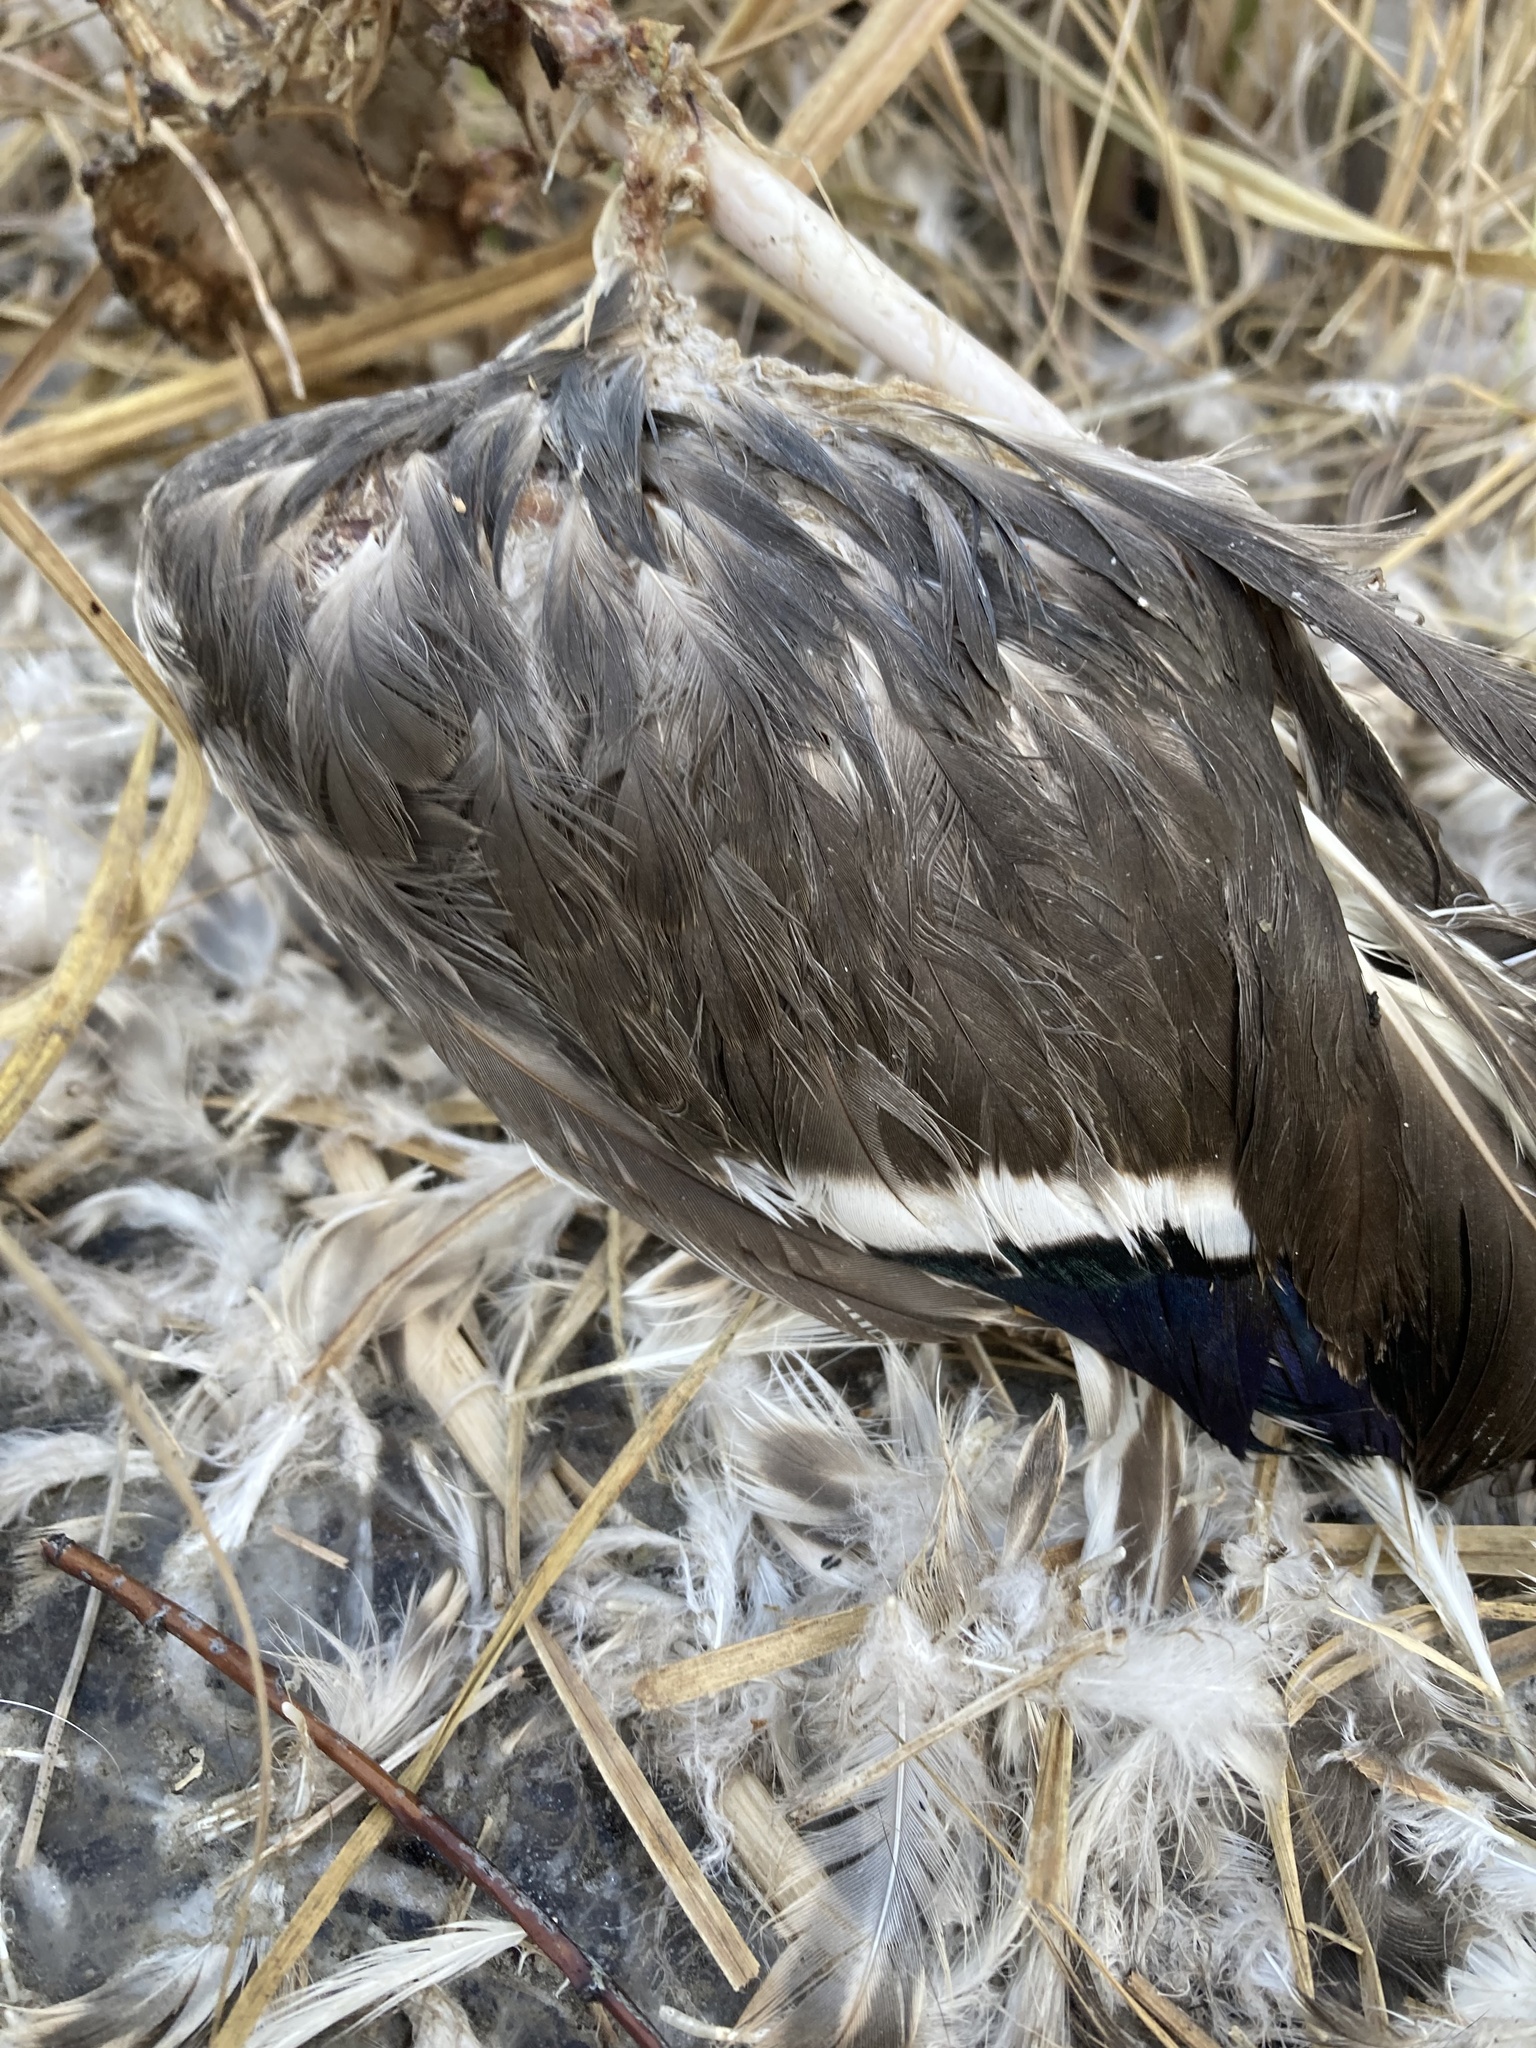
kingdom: Animalia
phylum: Chordata
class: Aves
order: Anseriformes
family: Anatidae
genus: Anas
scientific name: Anas platyrhynchos
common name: Mallard
